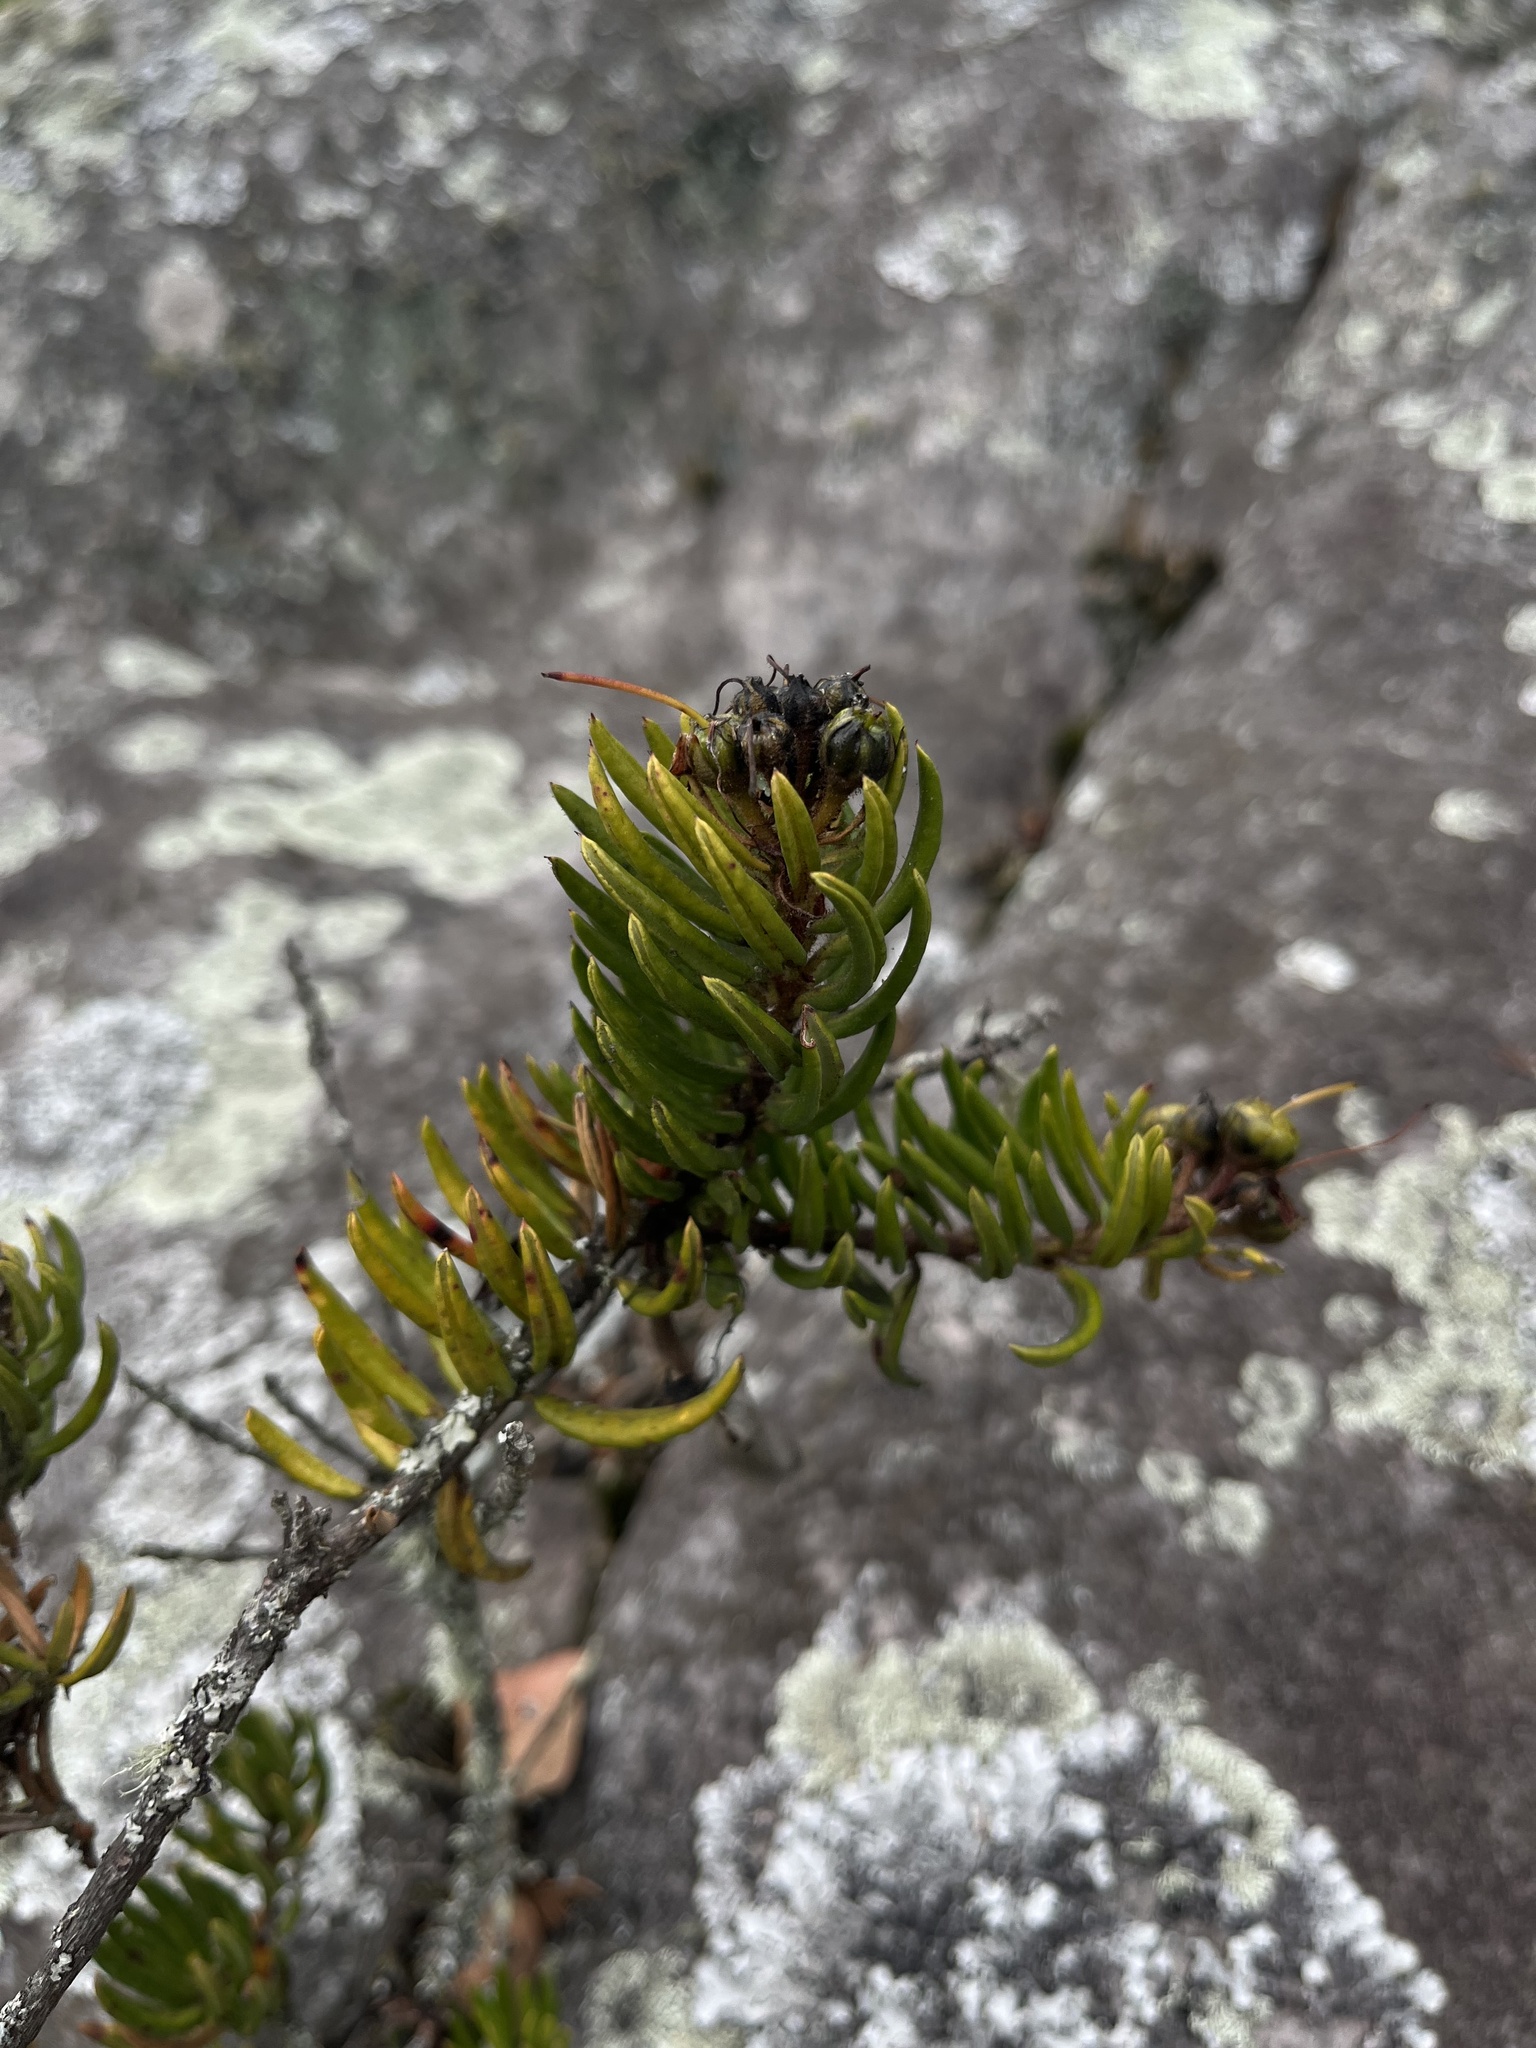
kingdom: Plantae
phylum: Tracheophyta
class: Magnoliopsida
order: Ericales
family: Ericaceae
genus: Bejaria
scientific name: Bejaria resinosa
